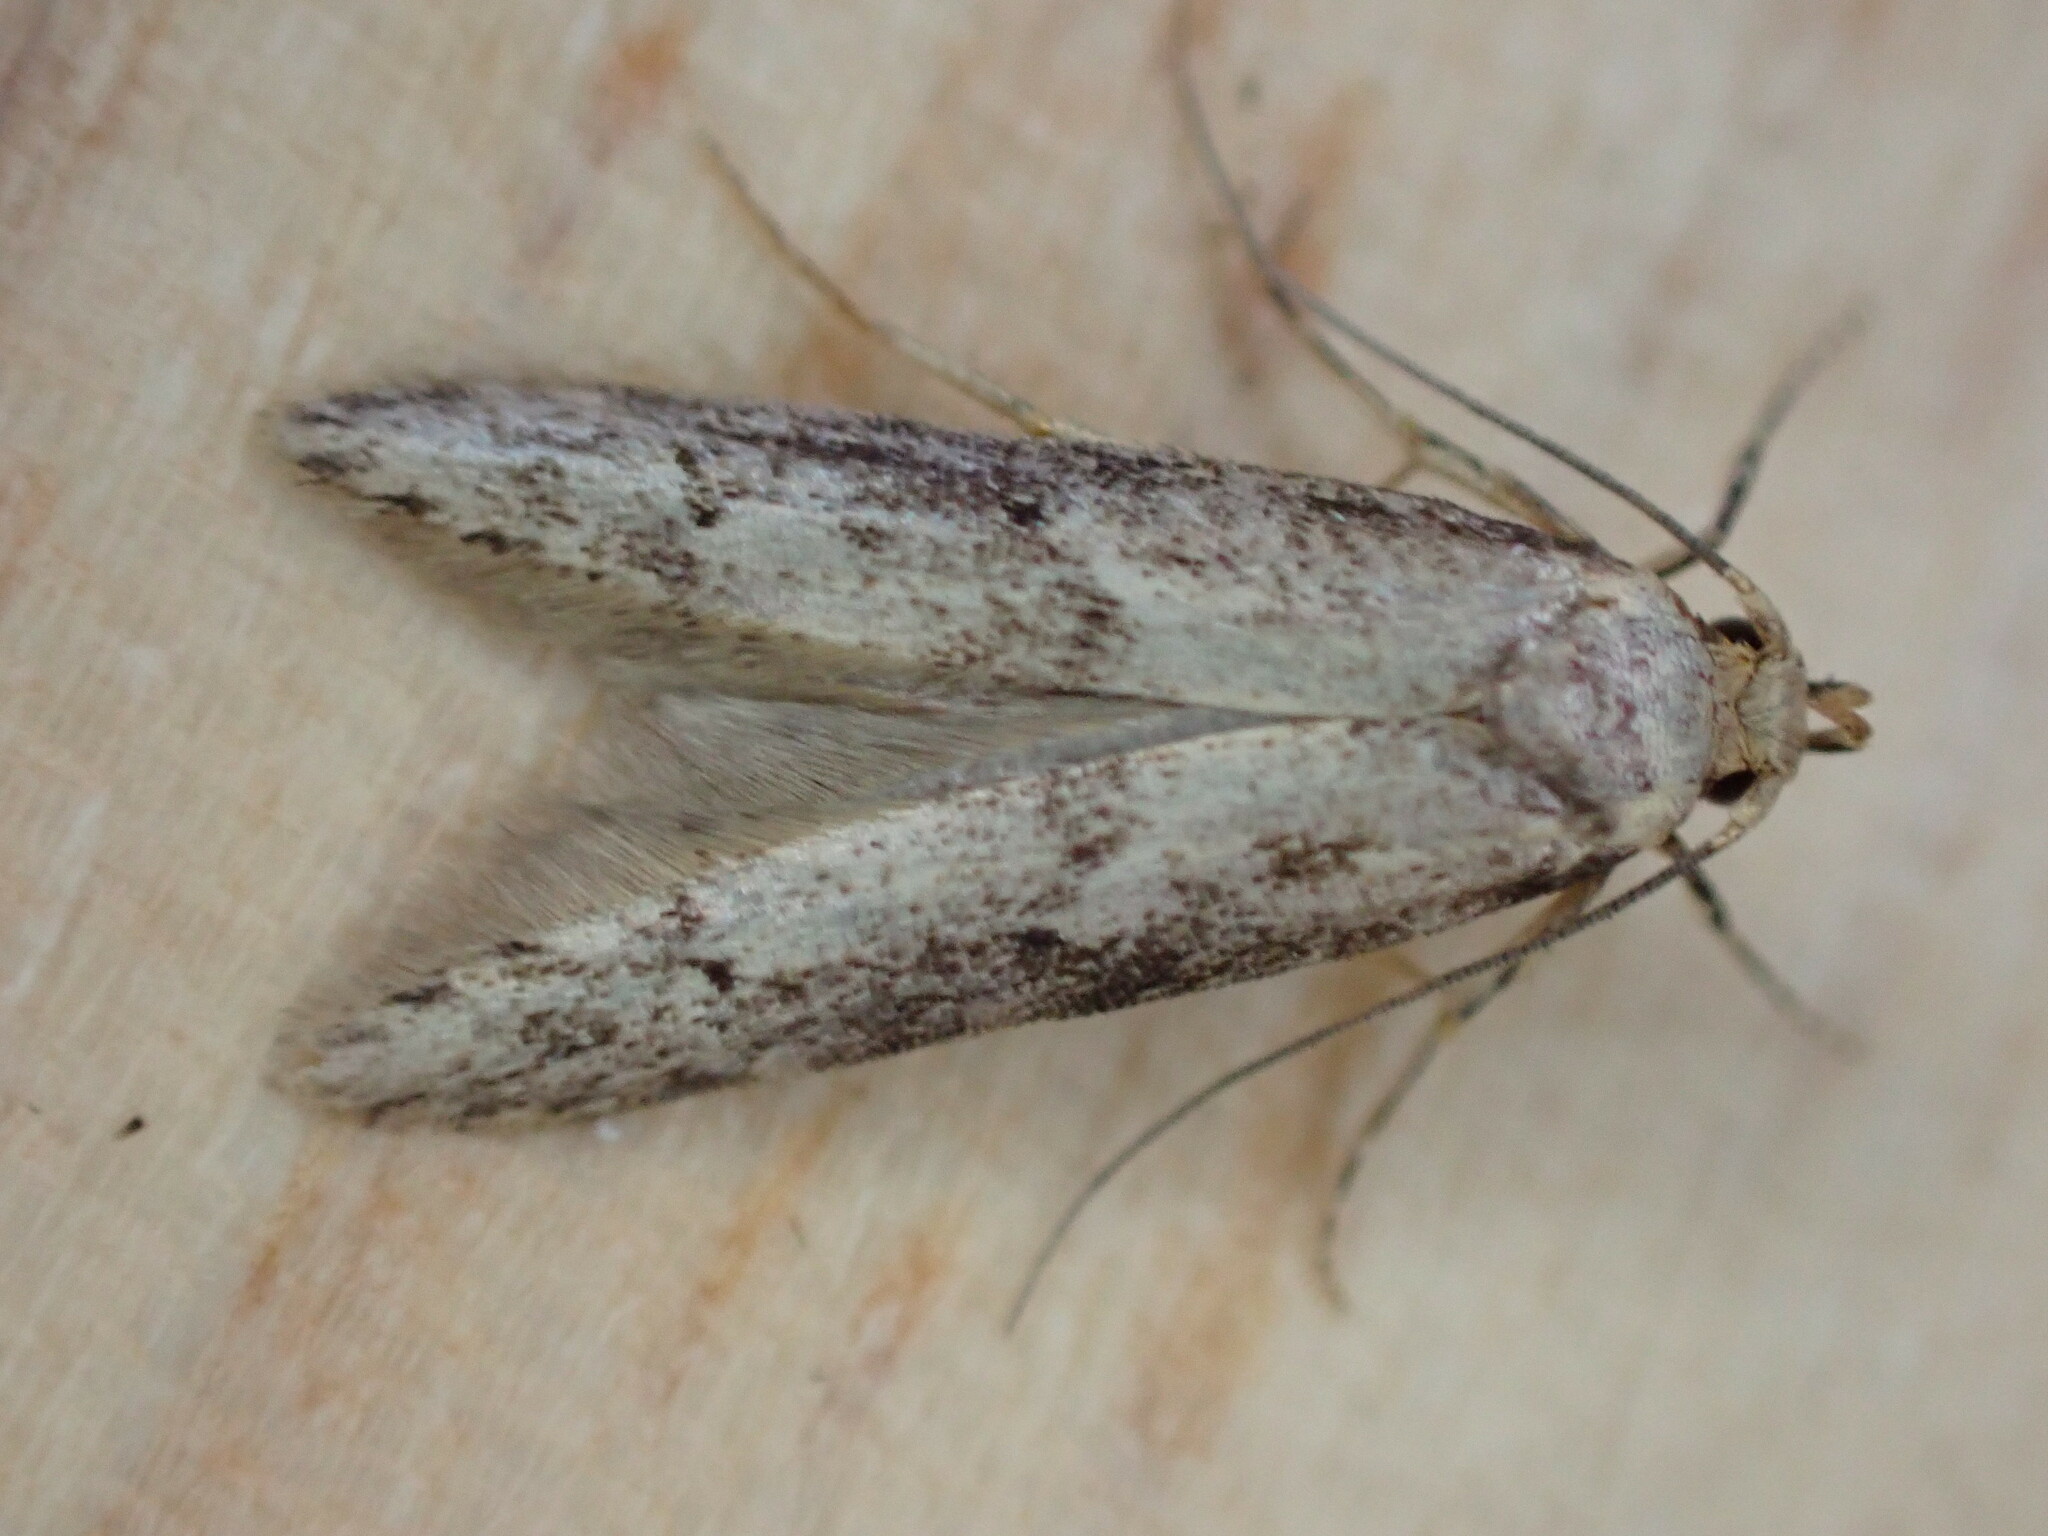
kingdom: Animalia
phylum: Arthropoda
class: Insecta
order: Lepidoptera
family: Blastobasidae
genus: Blastobasis
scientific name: Blastobasis adustella
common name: Dingy dowd
